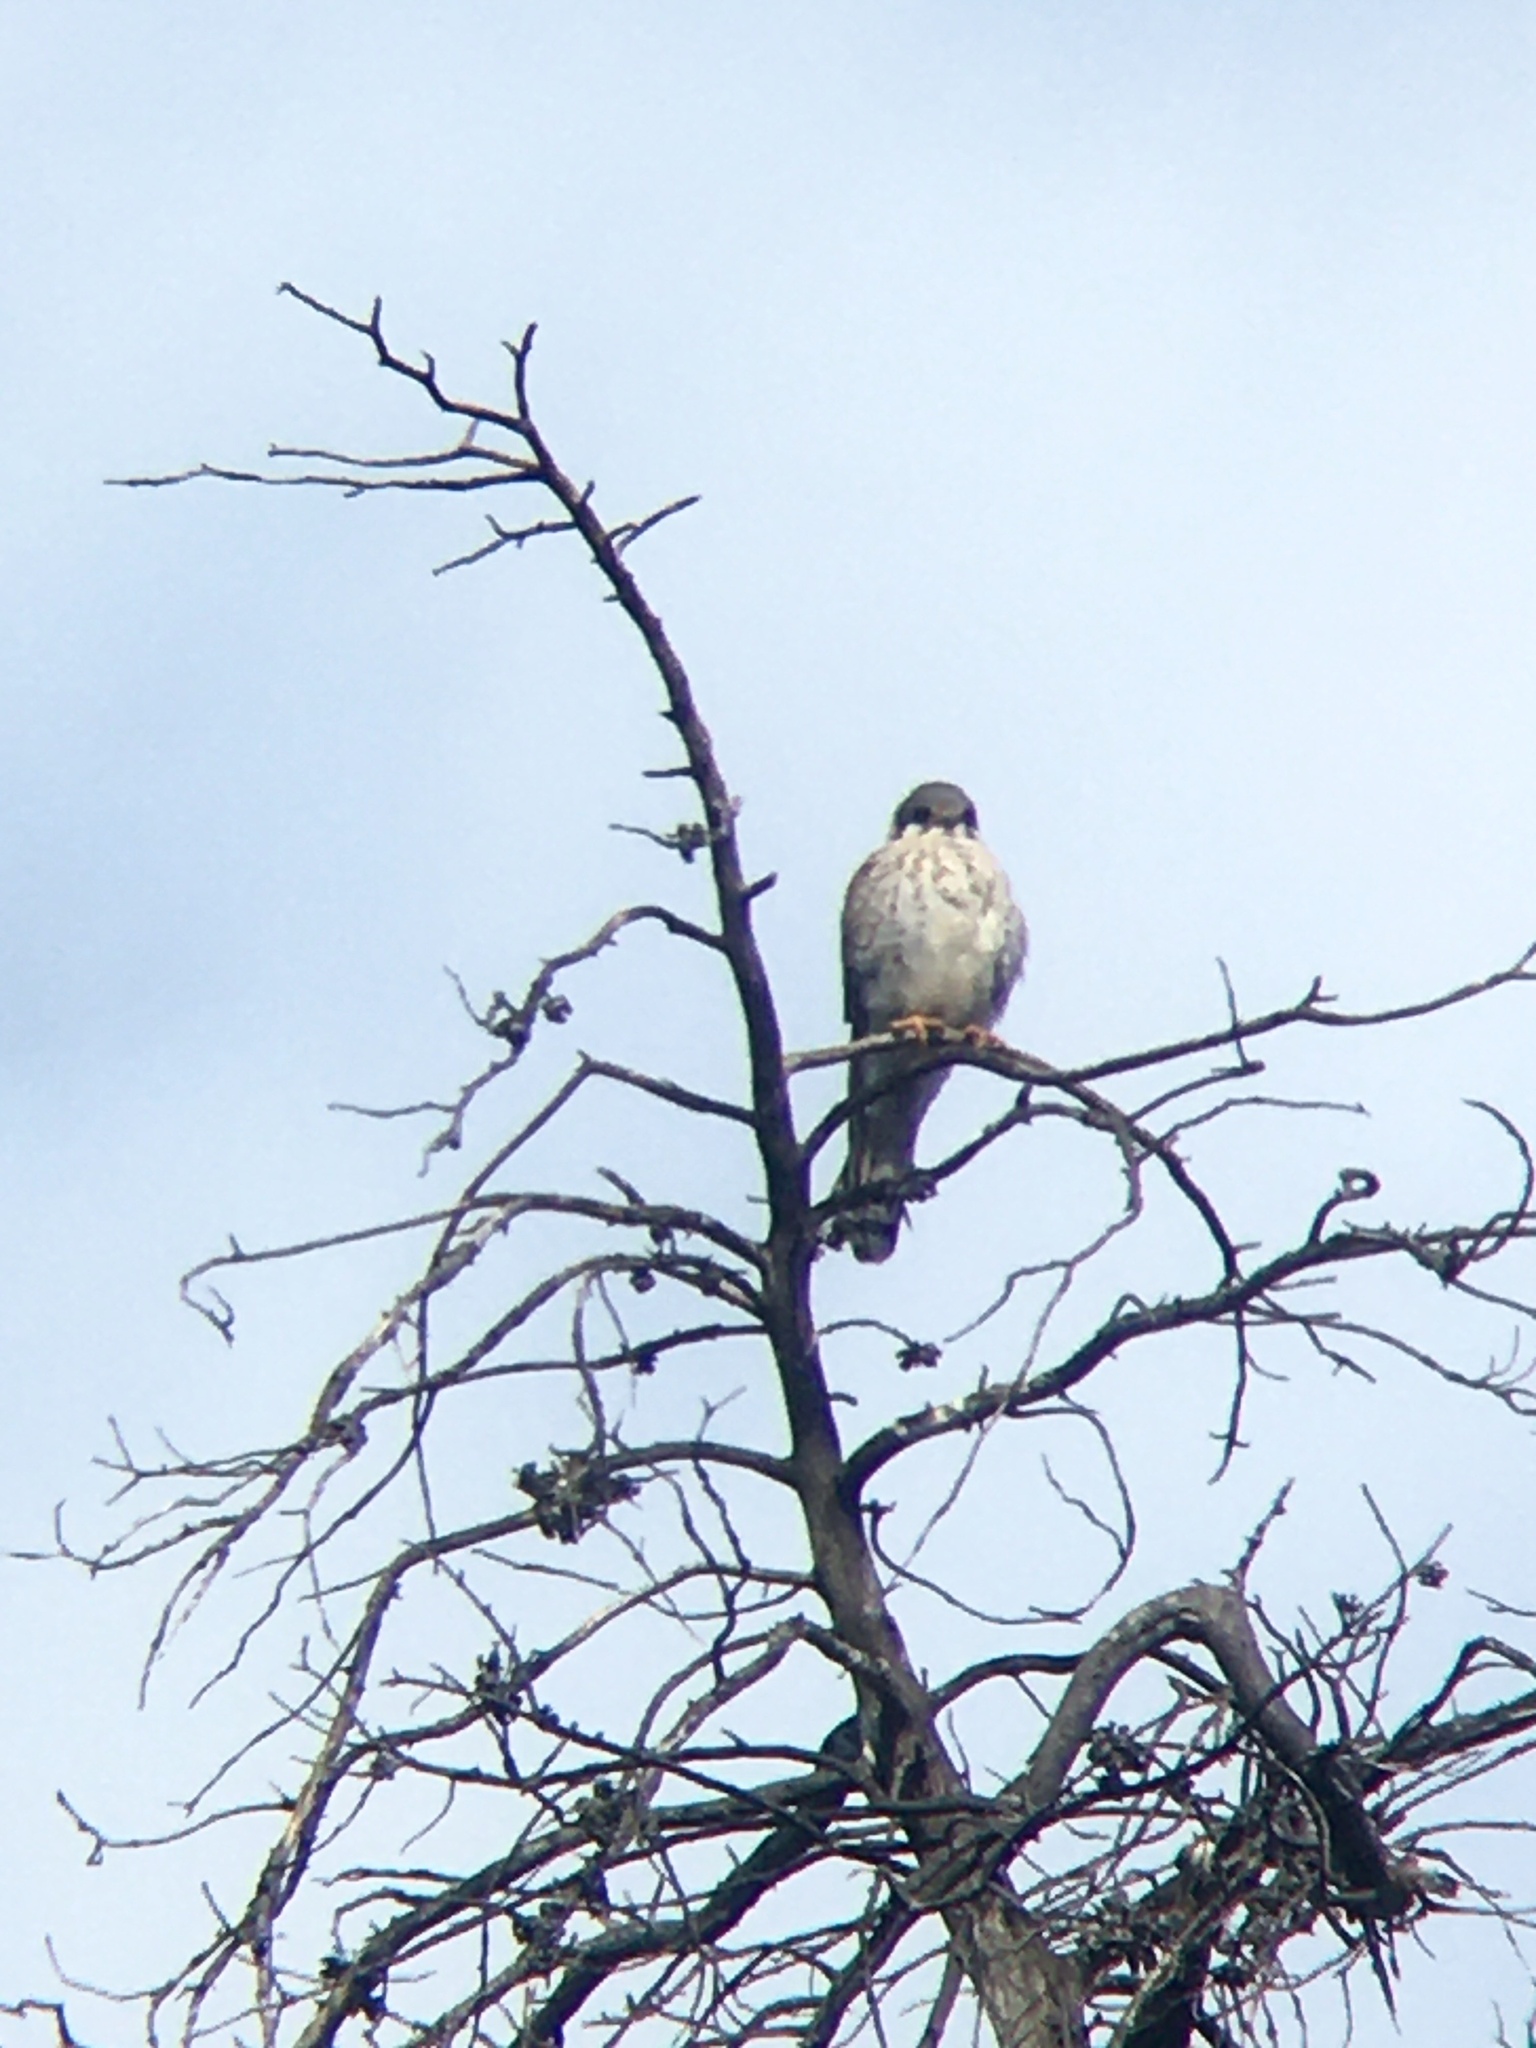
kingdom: Animalia
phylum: Chordata
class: Aves
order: Falconiformes
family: Falconidae
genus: Falco
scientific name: Falco sparverius
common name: American kestrel
